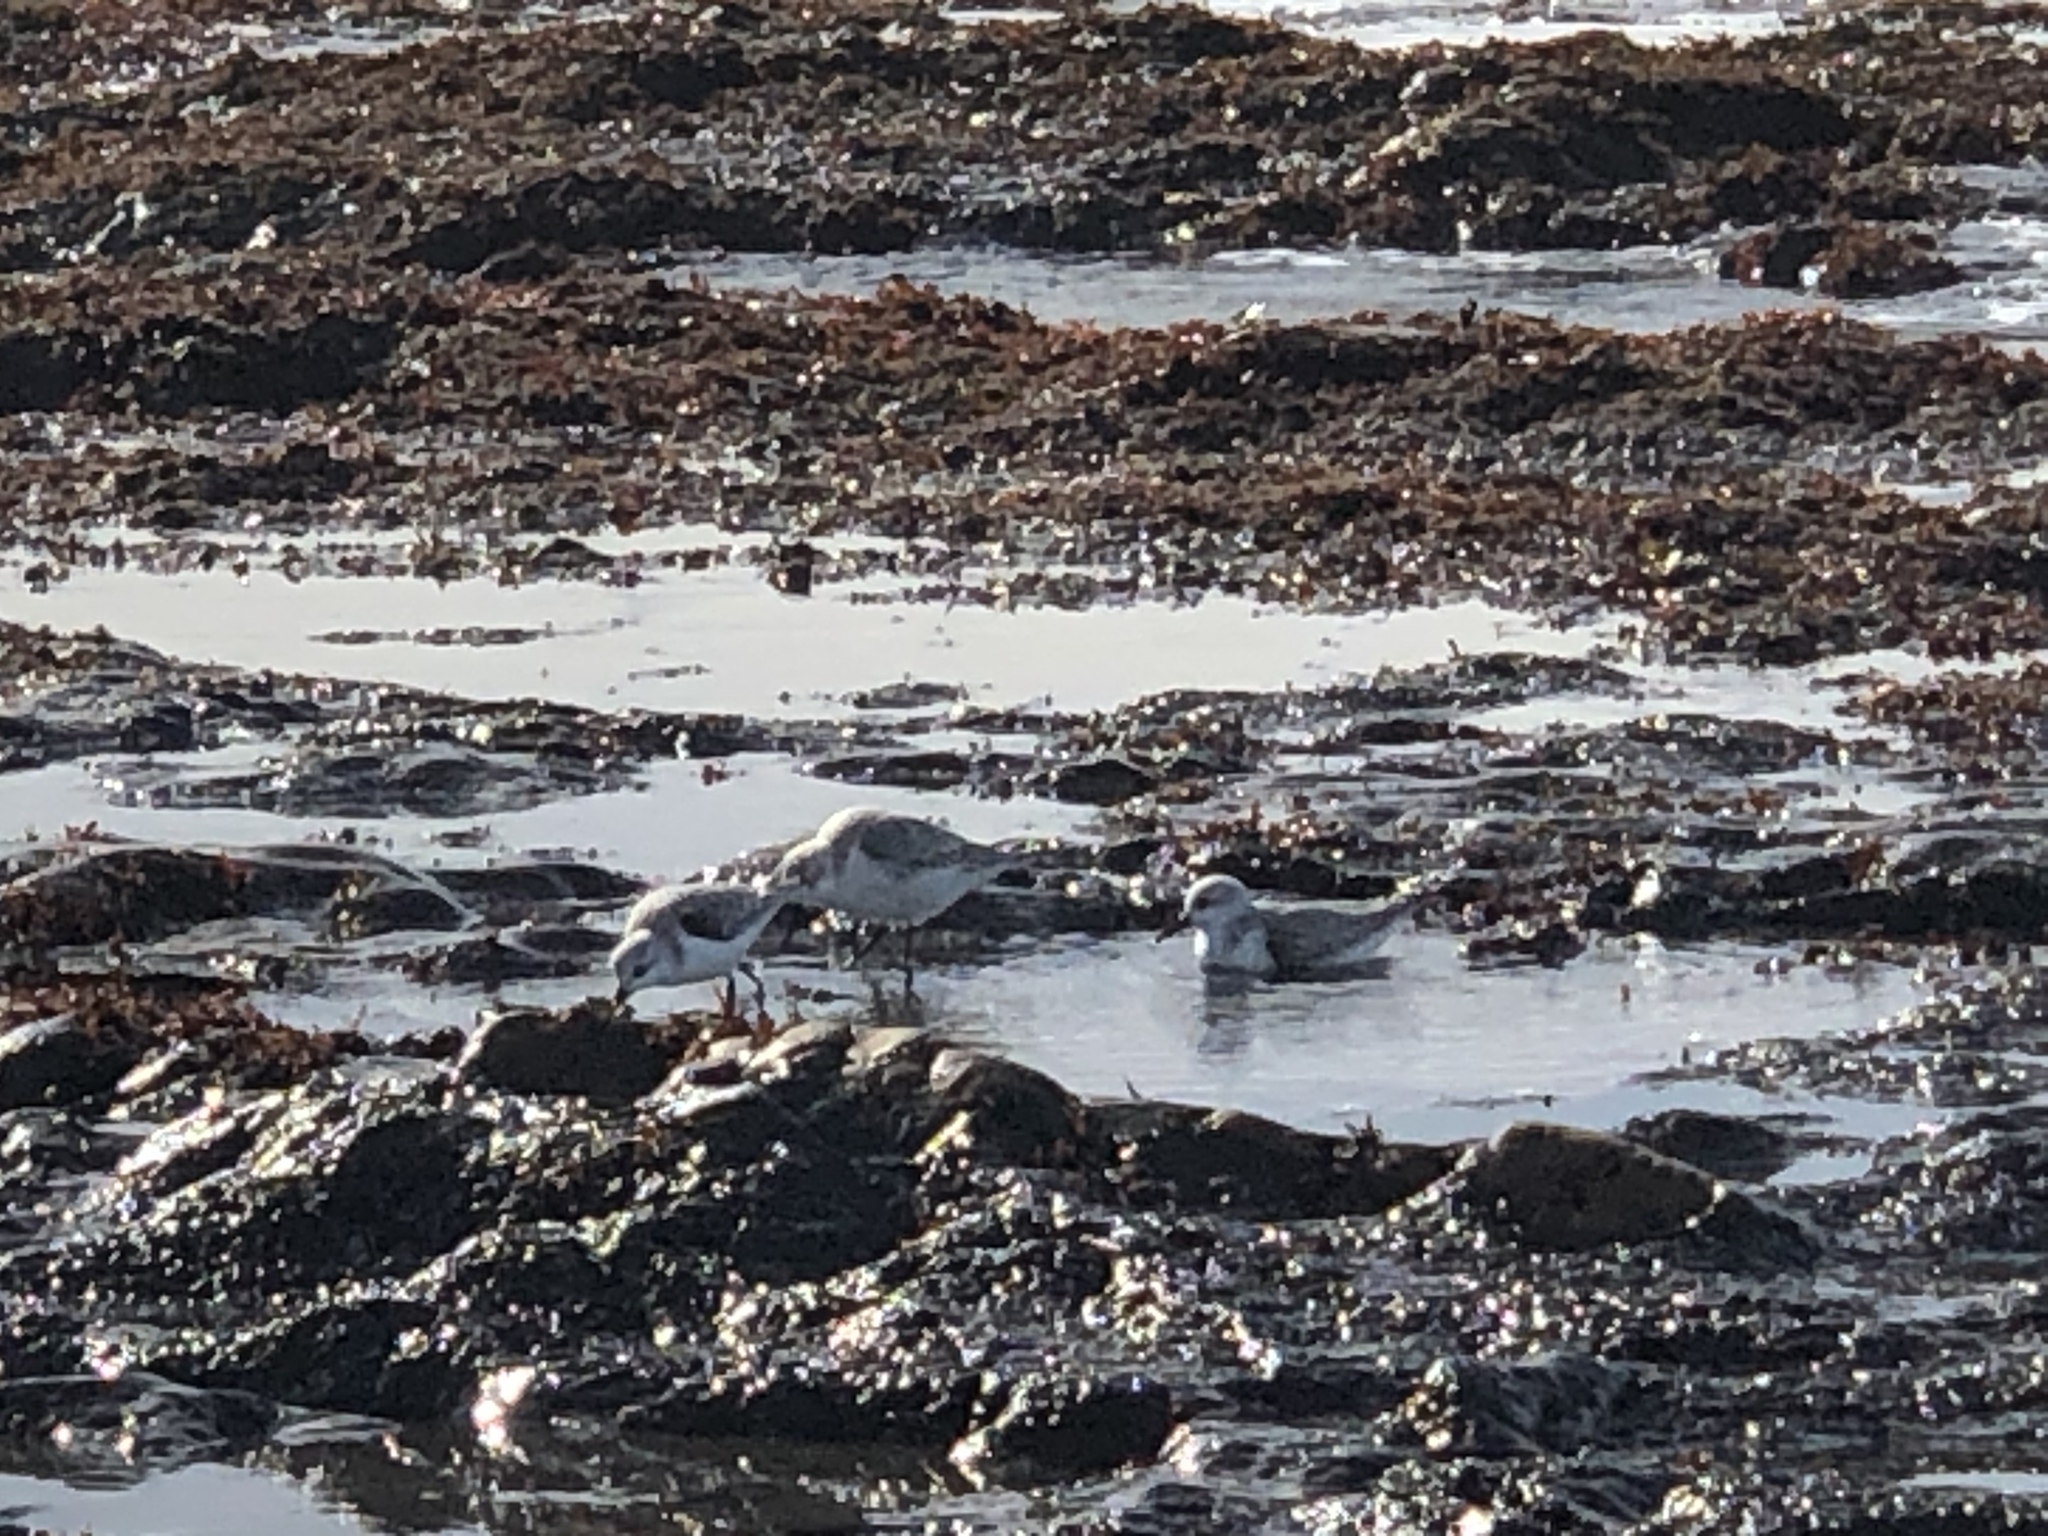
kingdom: Animalia
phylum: Chordata
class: Aves
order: Charadriiformes
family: Scolopacidae
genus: Calidris
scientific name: Calidris alba
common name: Sanderling
